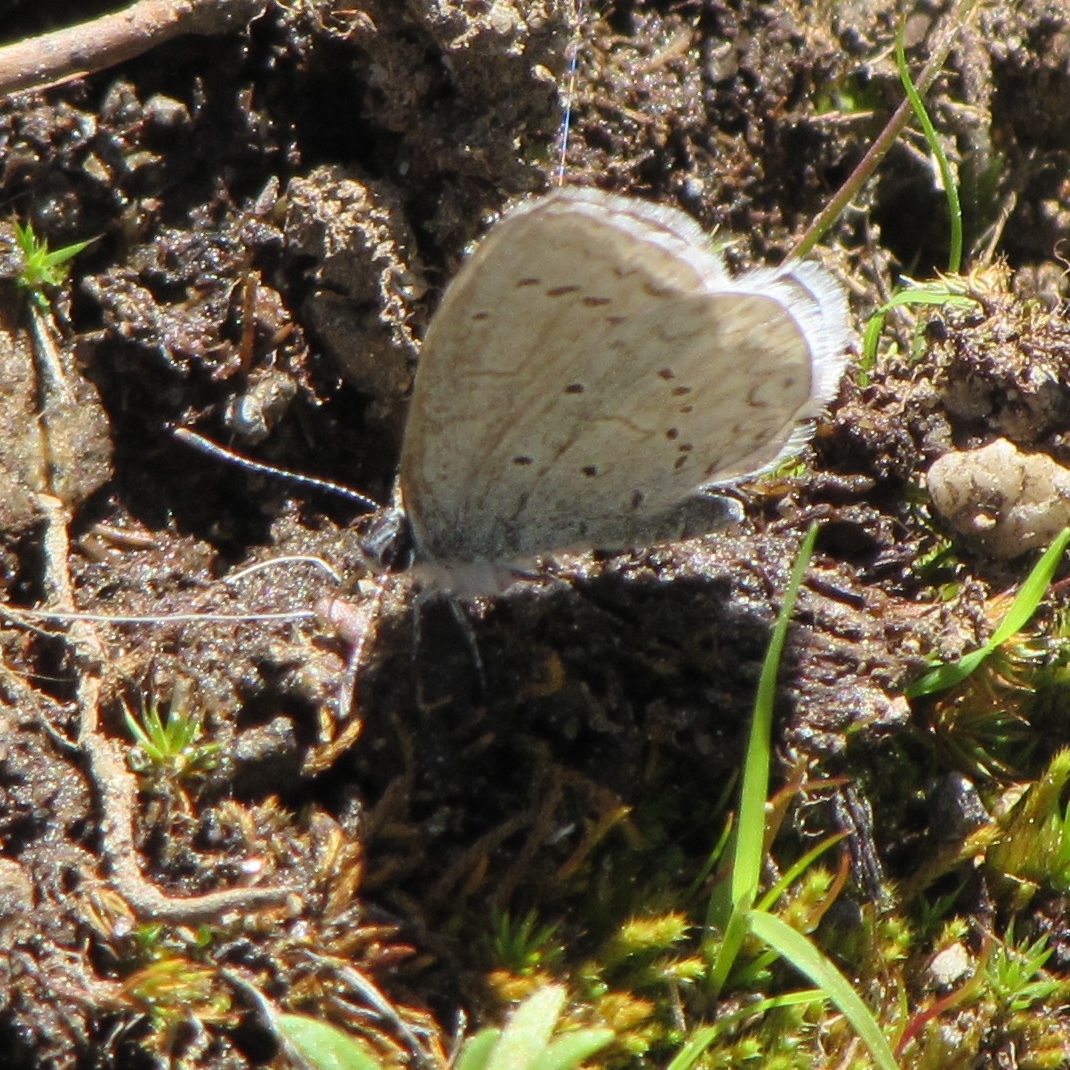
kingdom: Animalia
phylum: Arthropoda
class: Insecta
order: Lepidoptera
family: Lycaenidae
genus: Celastrina
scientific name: Celastrina ladon
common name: Spring azure
